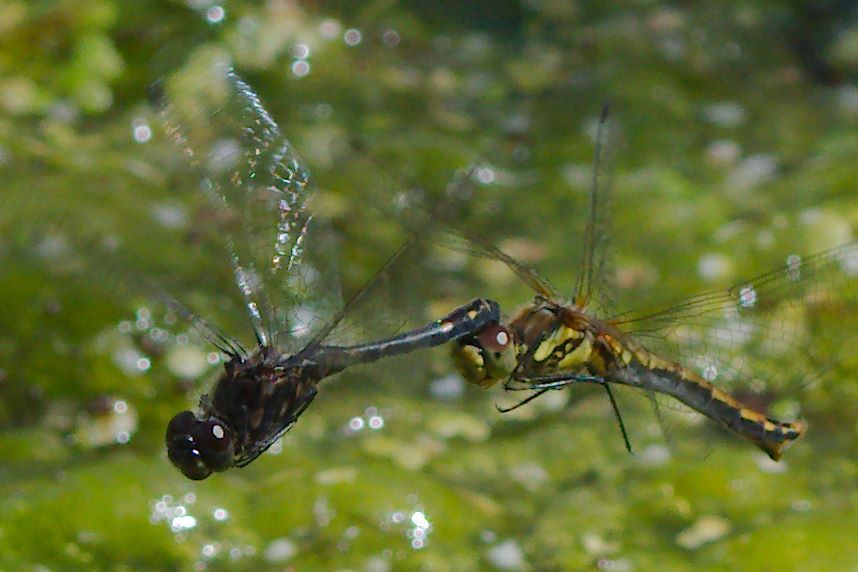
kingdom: Animalia
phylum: Arthropoda
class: Insecta
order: Odonata
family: Libellulidae
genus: Sympetrum
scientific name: Sympetrum danae
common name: Black darter
